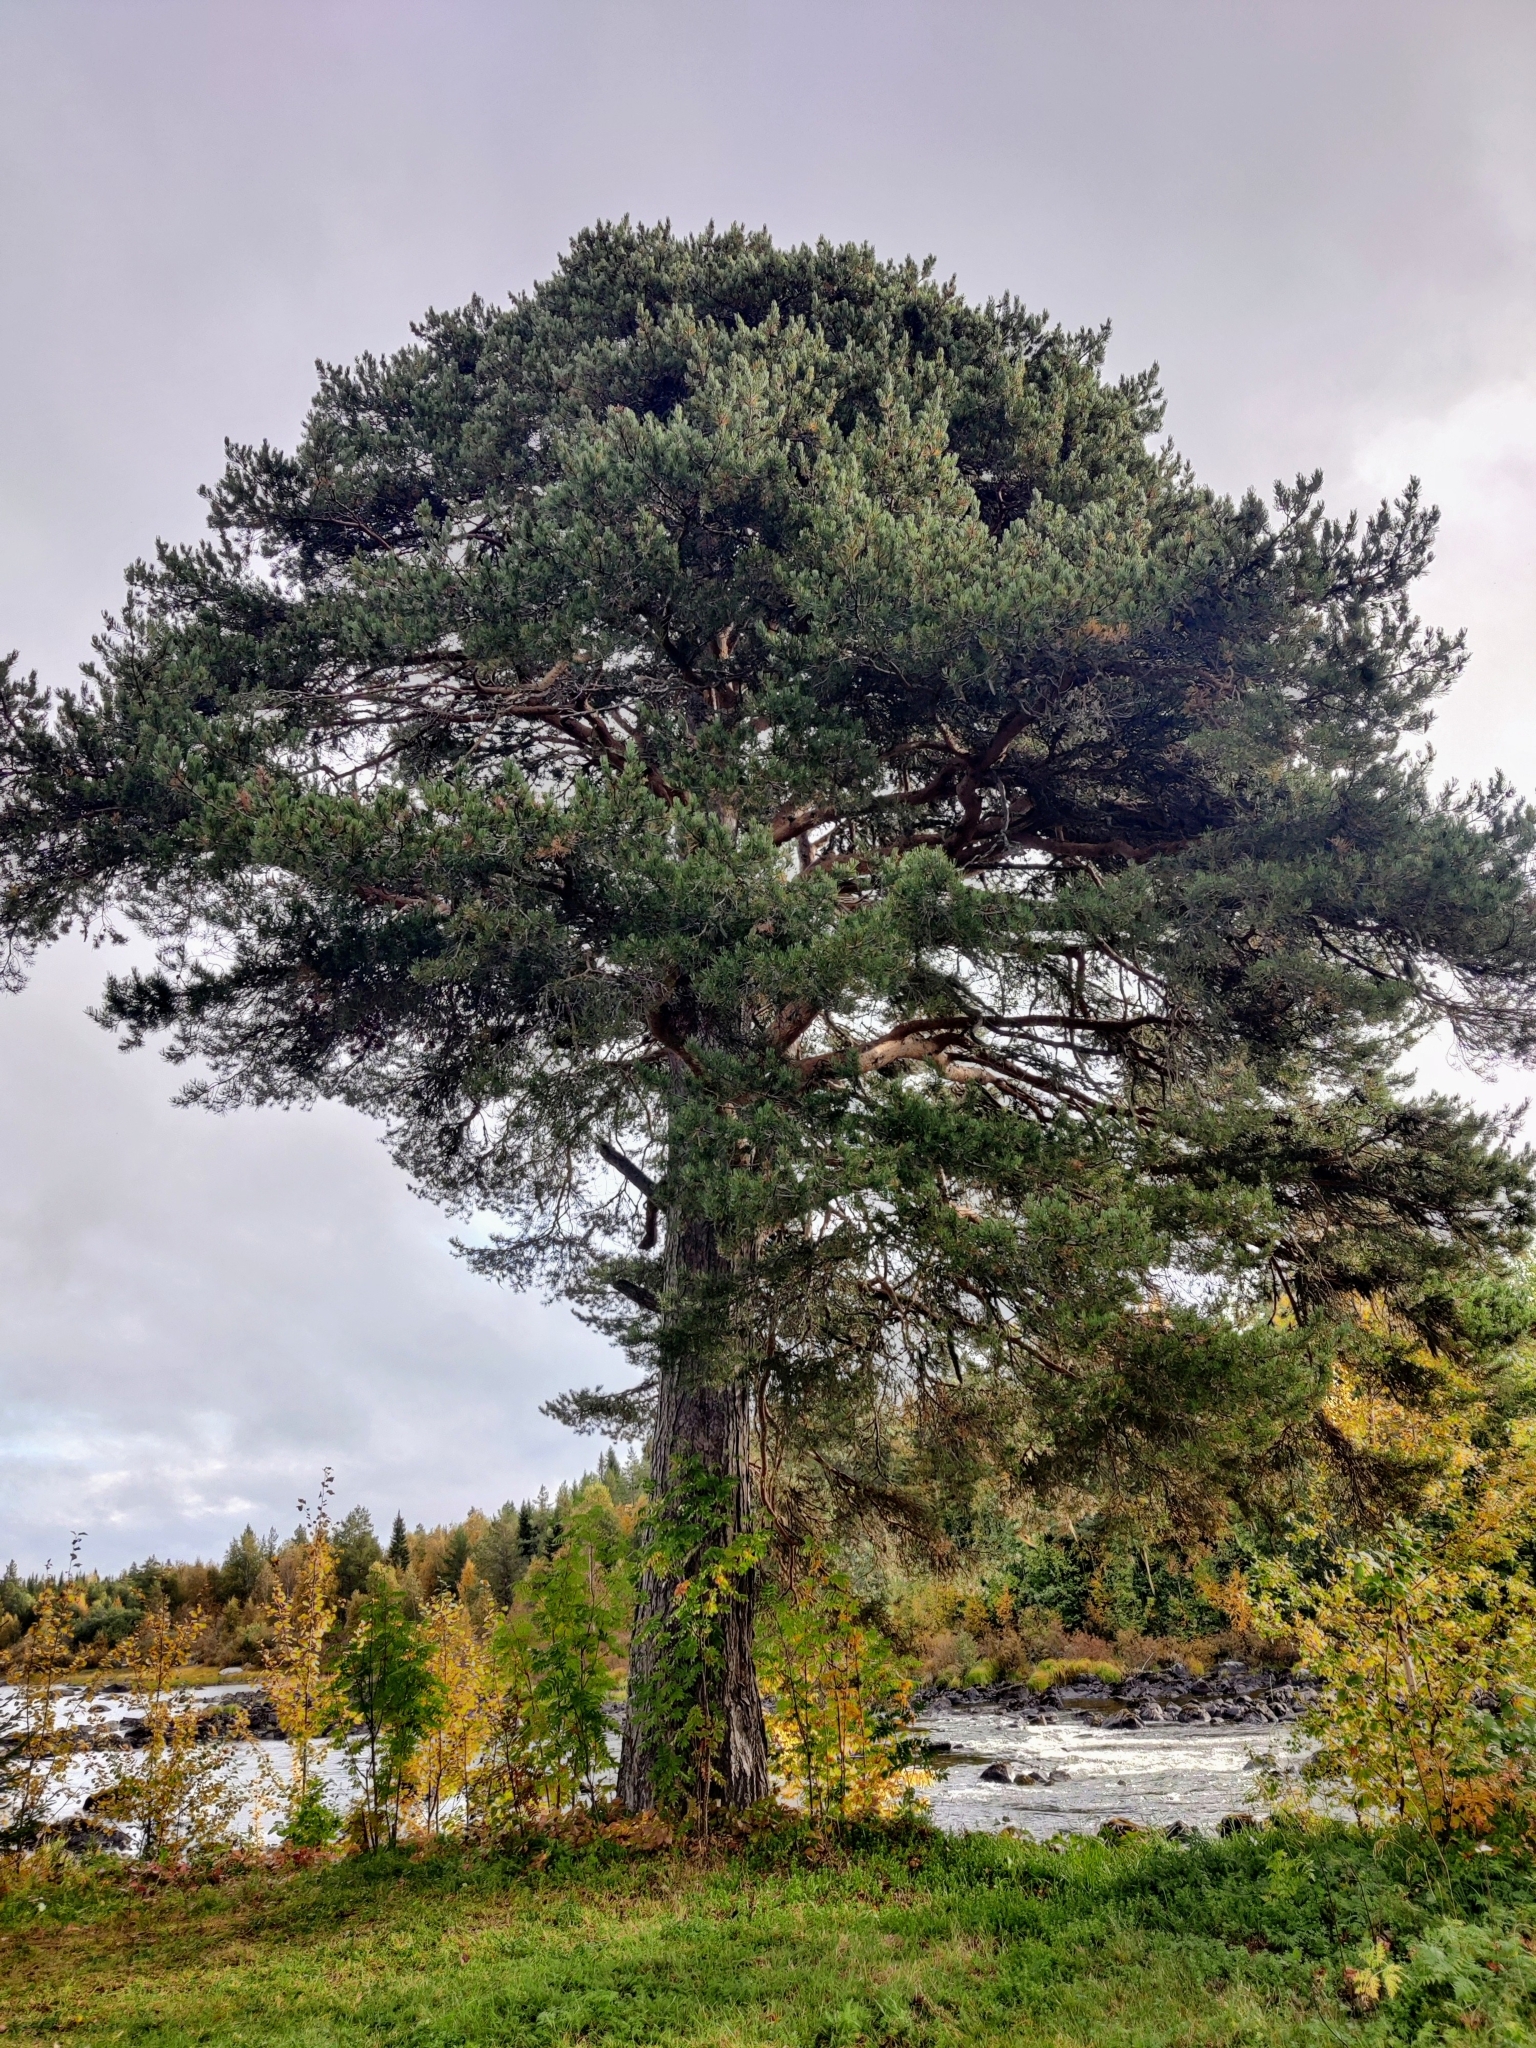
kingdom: Plantae
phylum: Tracheophyta
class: Pinopsida
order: Pinales
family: Pinaceae
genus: Pinus
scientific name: Pinus sylvestris
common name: Scots pine
